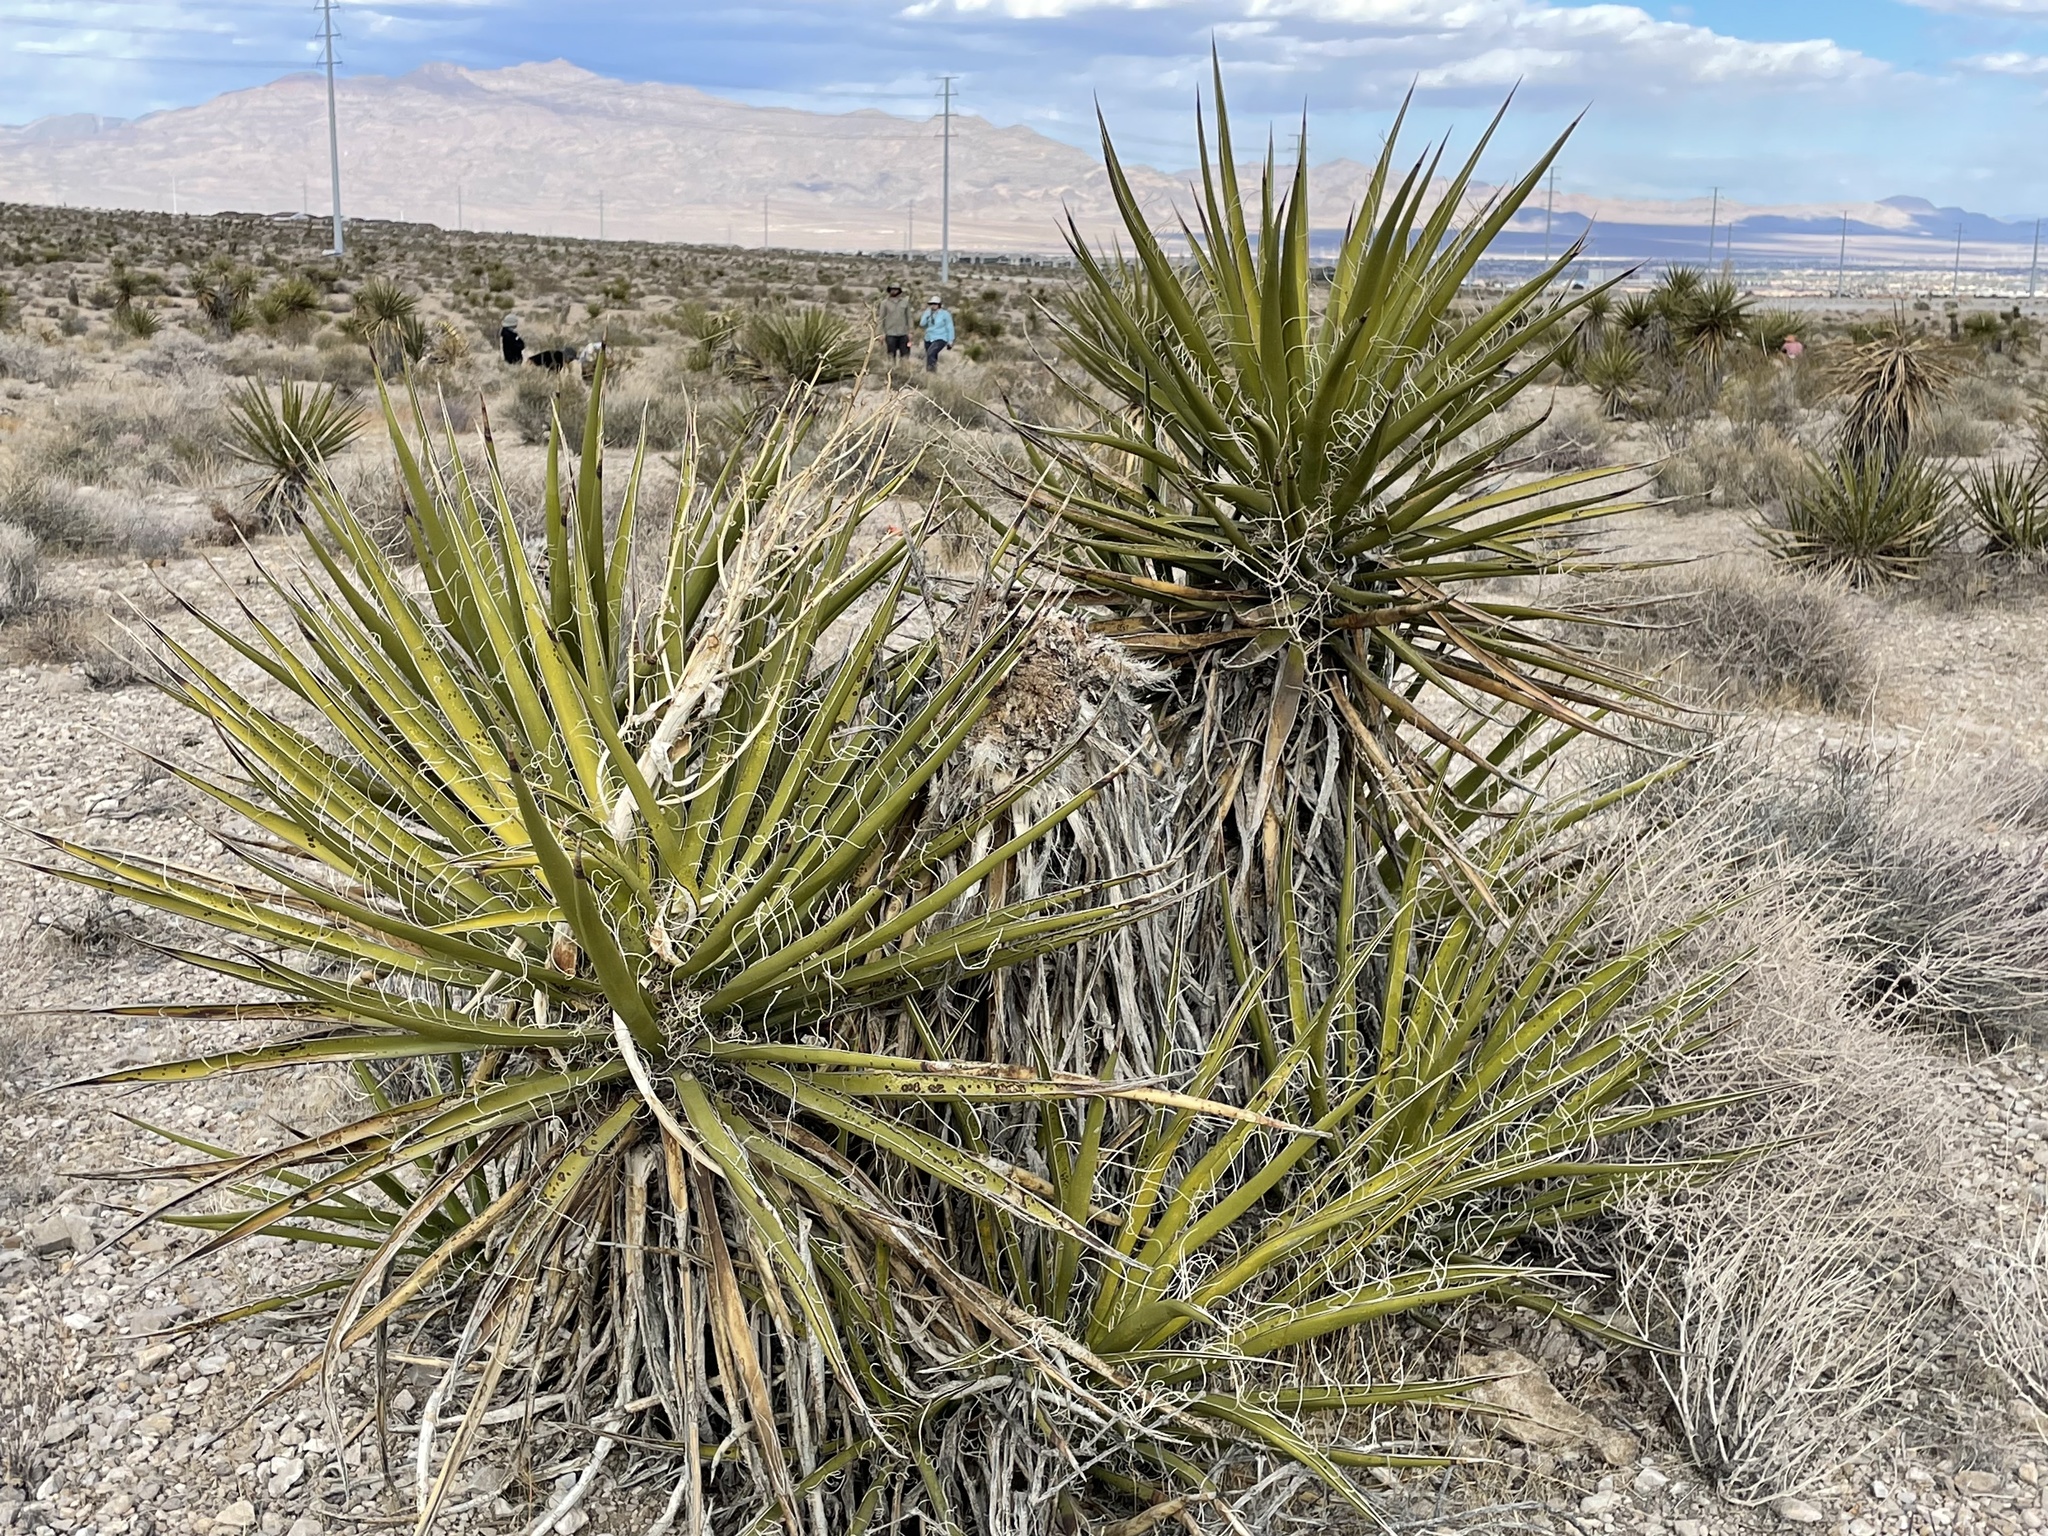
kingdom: Plantae
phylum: Tracheophyta
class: Liliopsida
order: Asparagales
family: Asparagaceae
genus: Yucca
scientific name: Yucca schidigera
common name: Mojave yucca
